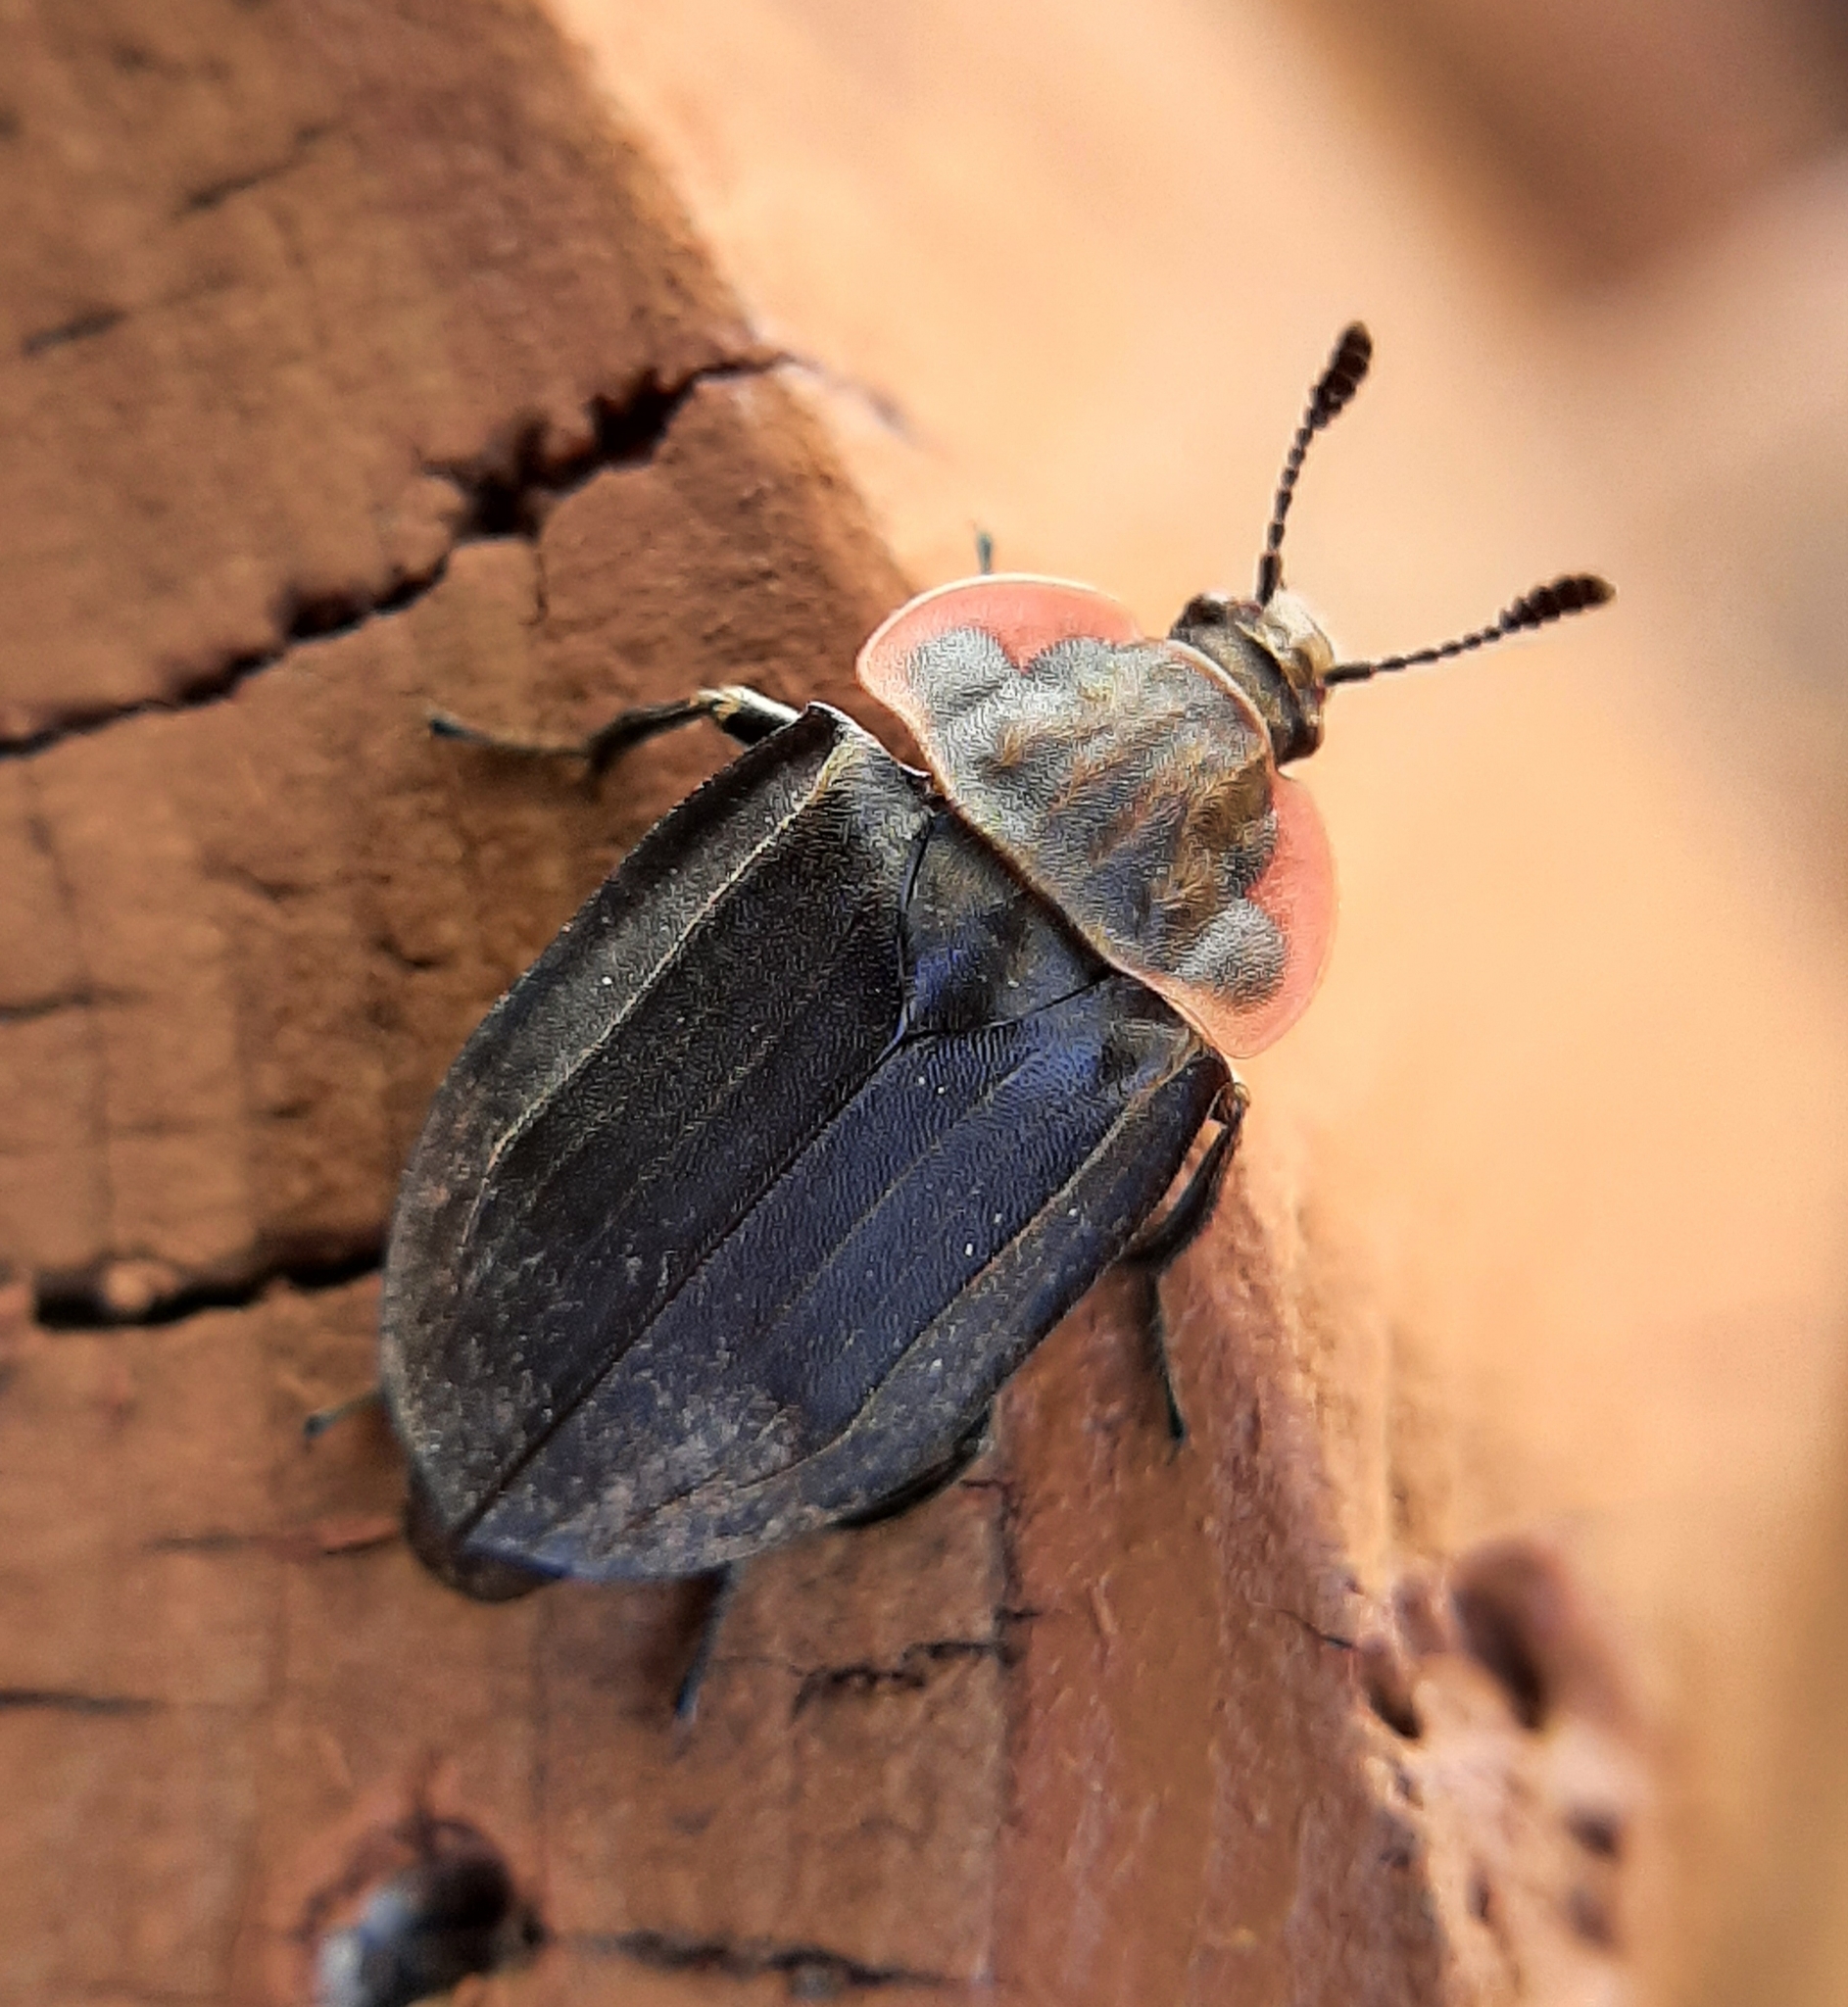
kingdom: Animalia
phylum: Arthropoda
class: Insecta
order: Coleoptera
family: Staphylinidae
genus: Oiceoptoma
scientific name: Oiceoptoma noveboracense
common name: Margined carrion beetle
